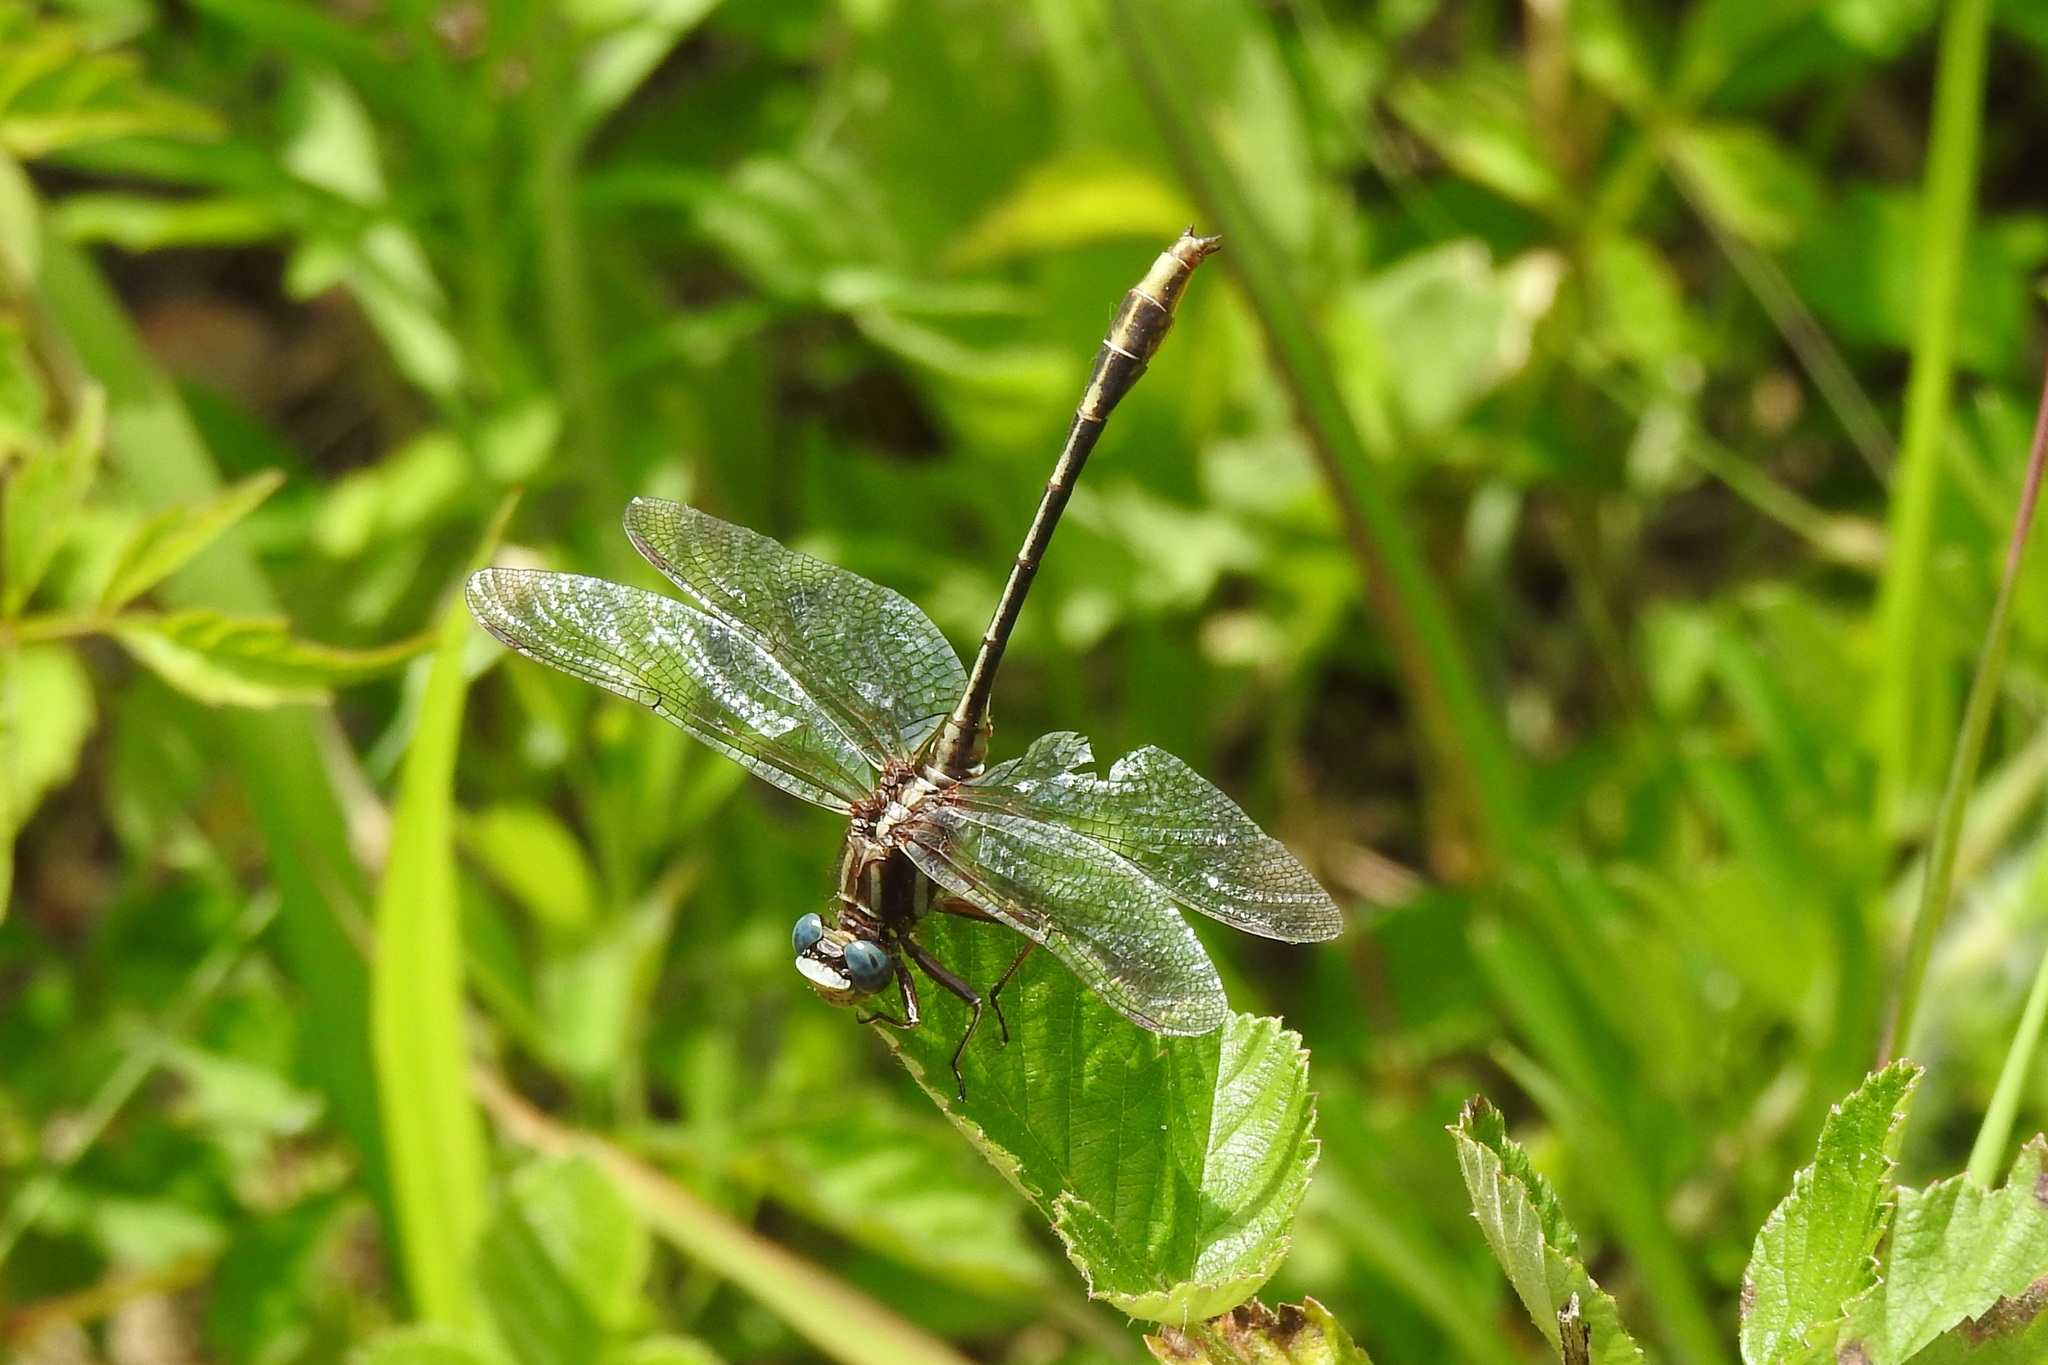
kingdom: Animalia
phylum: Arthropoda
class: Insecta
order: Odonata
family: Gomphidae
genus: Phanogomphus
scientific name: Phanogomphus exilis
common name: Lancet clubtail
